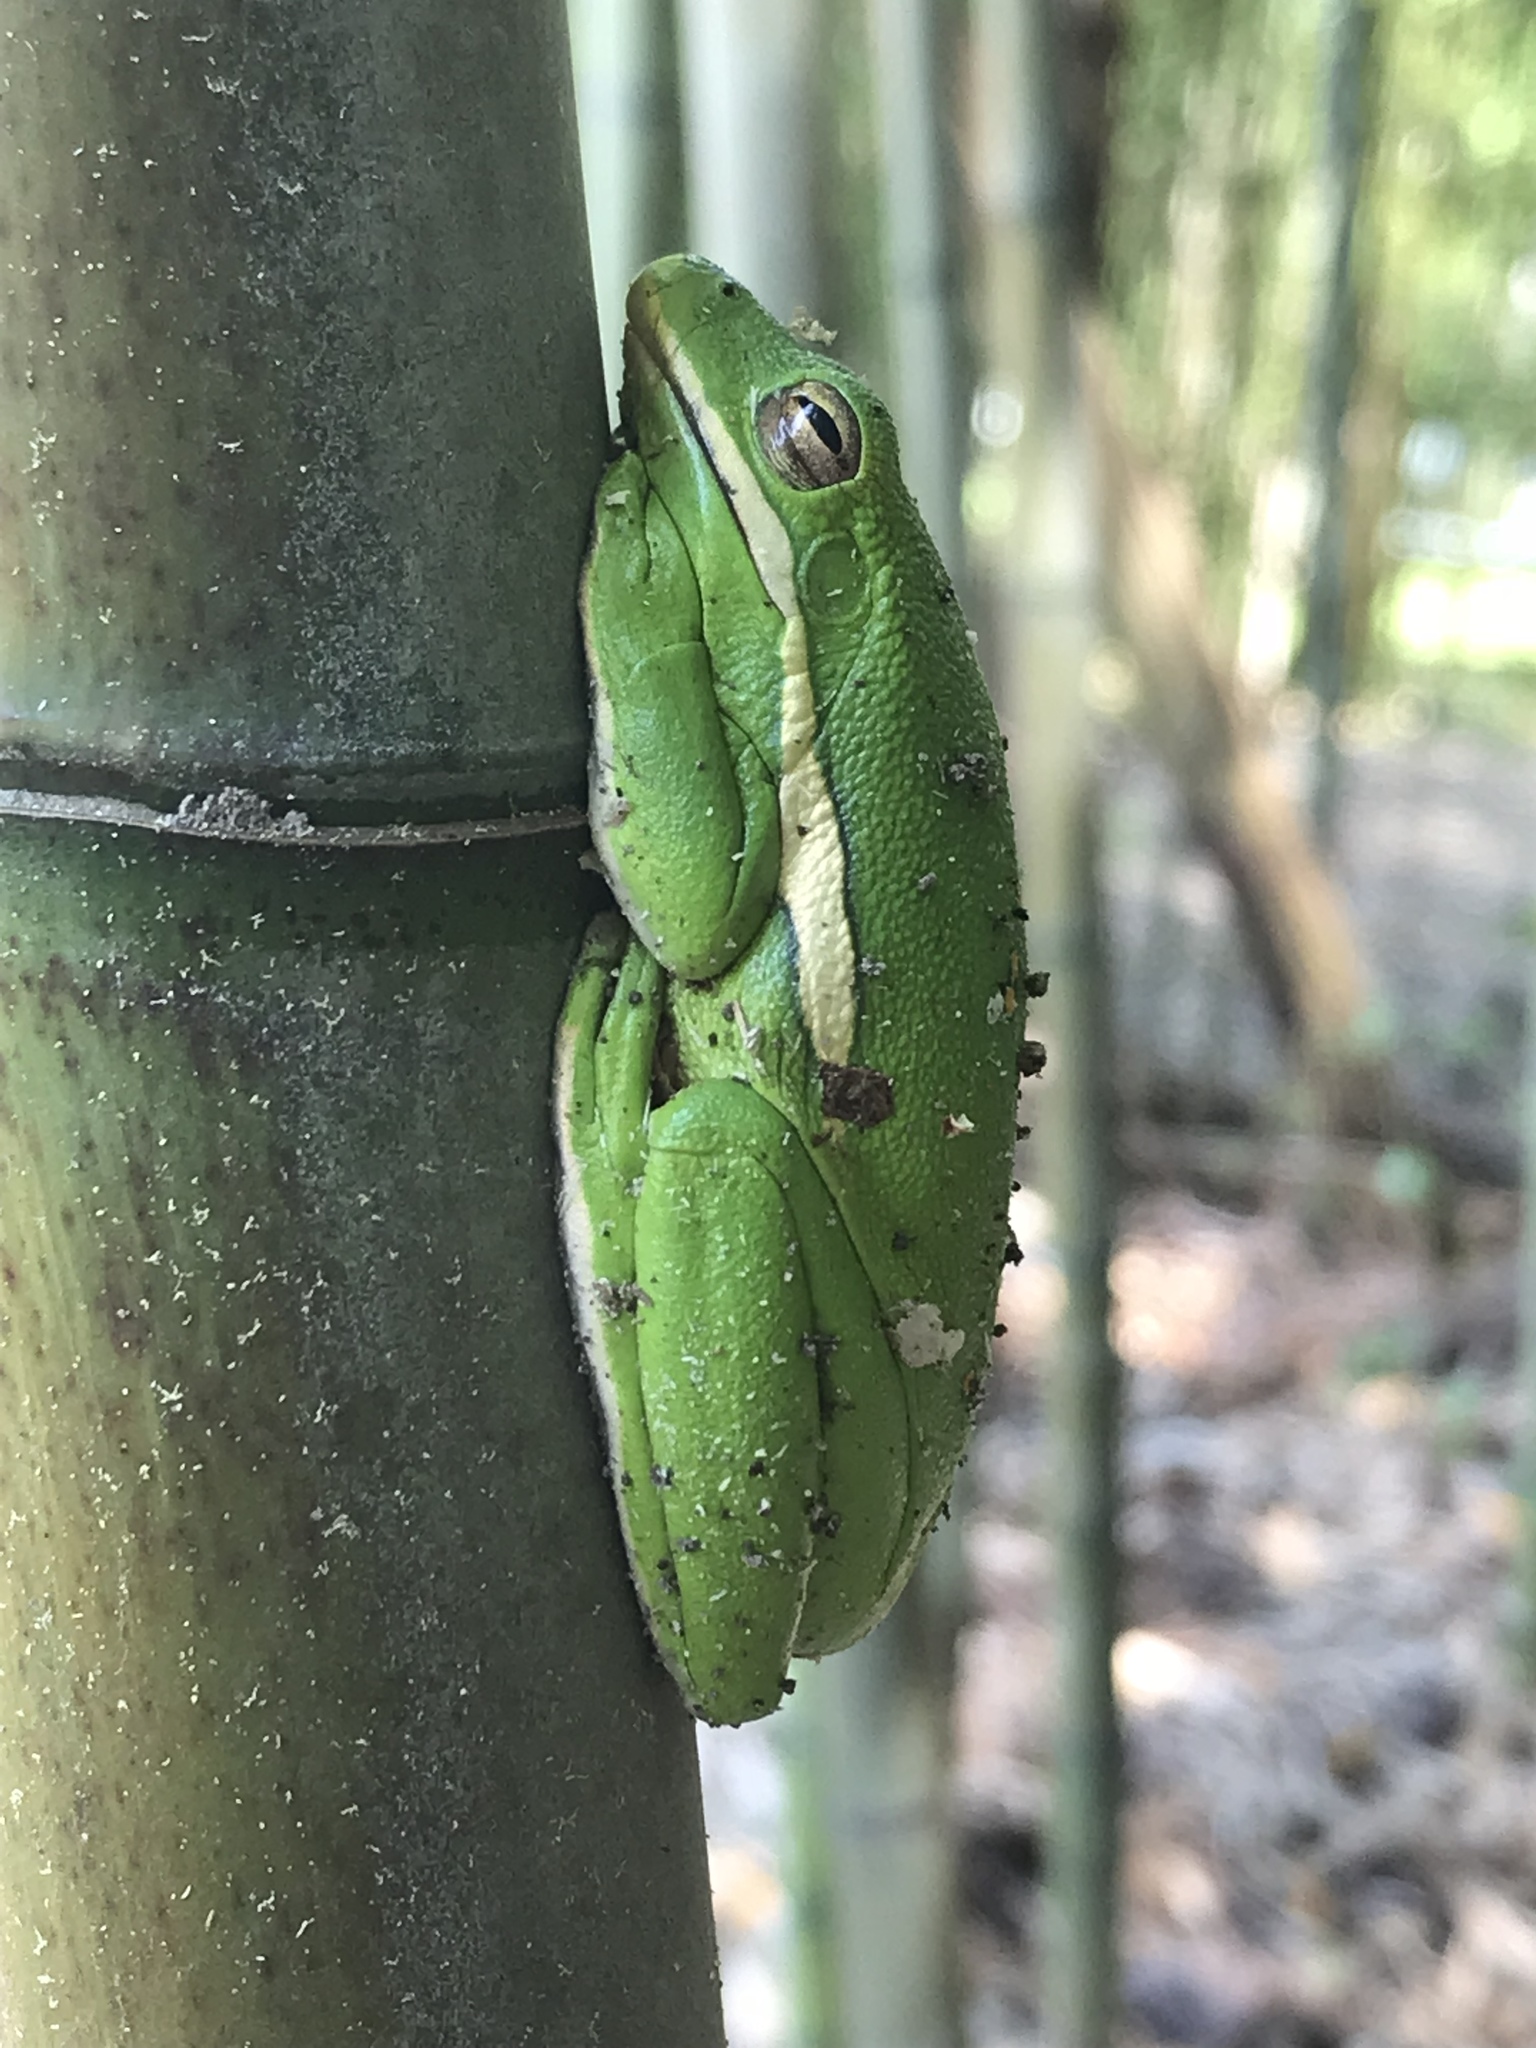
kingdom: Animalia
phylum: Chordata
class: Amphibia
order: Anura
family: Hylidae
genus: Dryophytes
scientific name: Dryophytes cinereus
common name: Green treefrog
